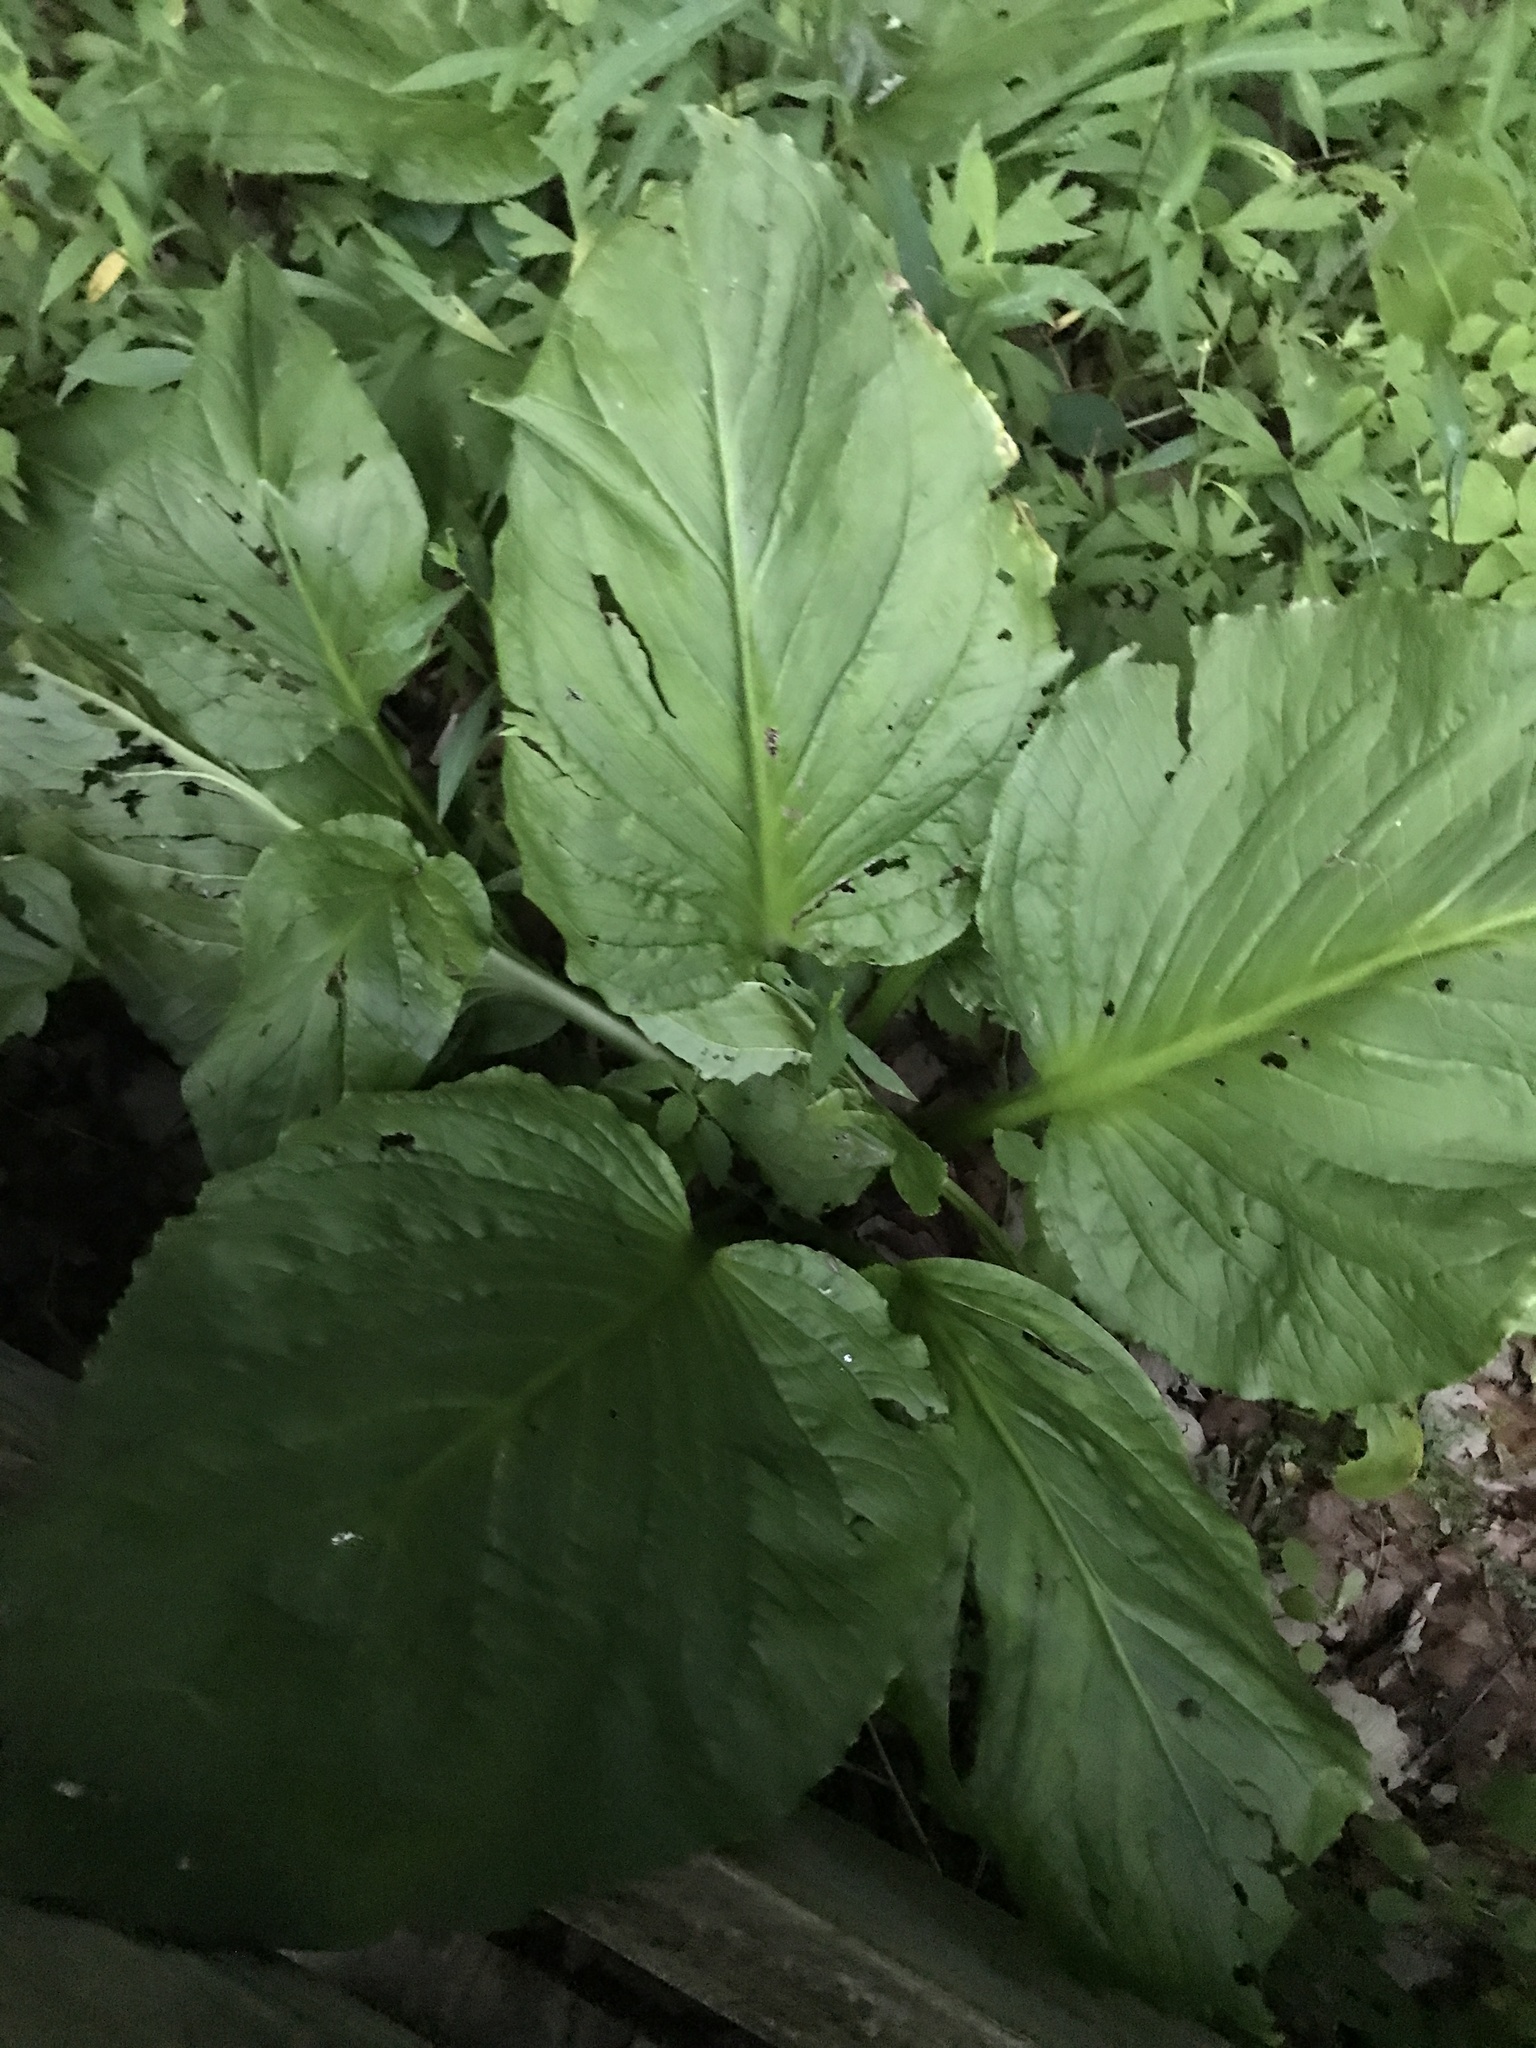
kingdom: Plantae
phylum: Tracheophyta
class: Liliopsida
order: Alismatales
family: Araceae
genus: Symplocarpus
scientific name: Symplocarpus foetidus
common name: Eastern skunk cabbage
